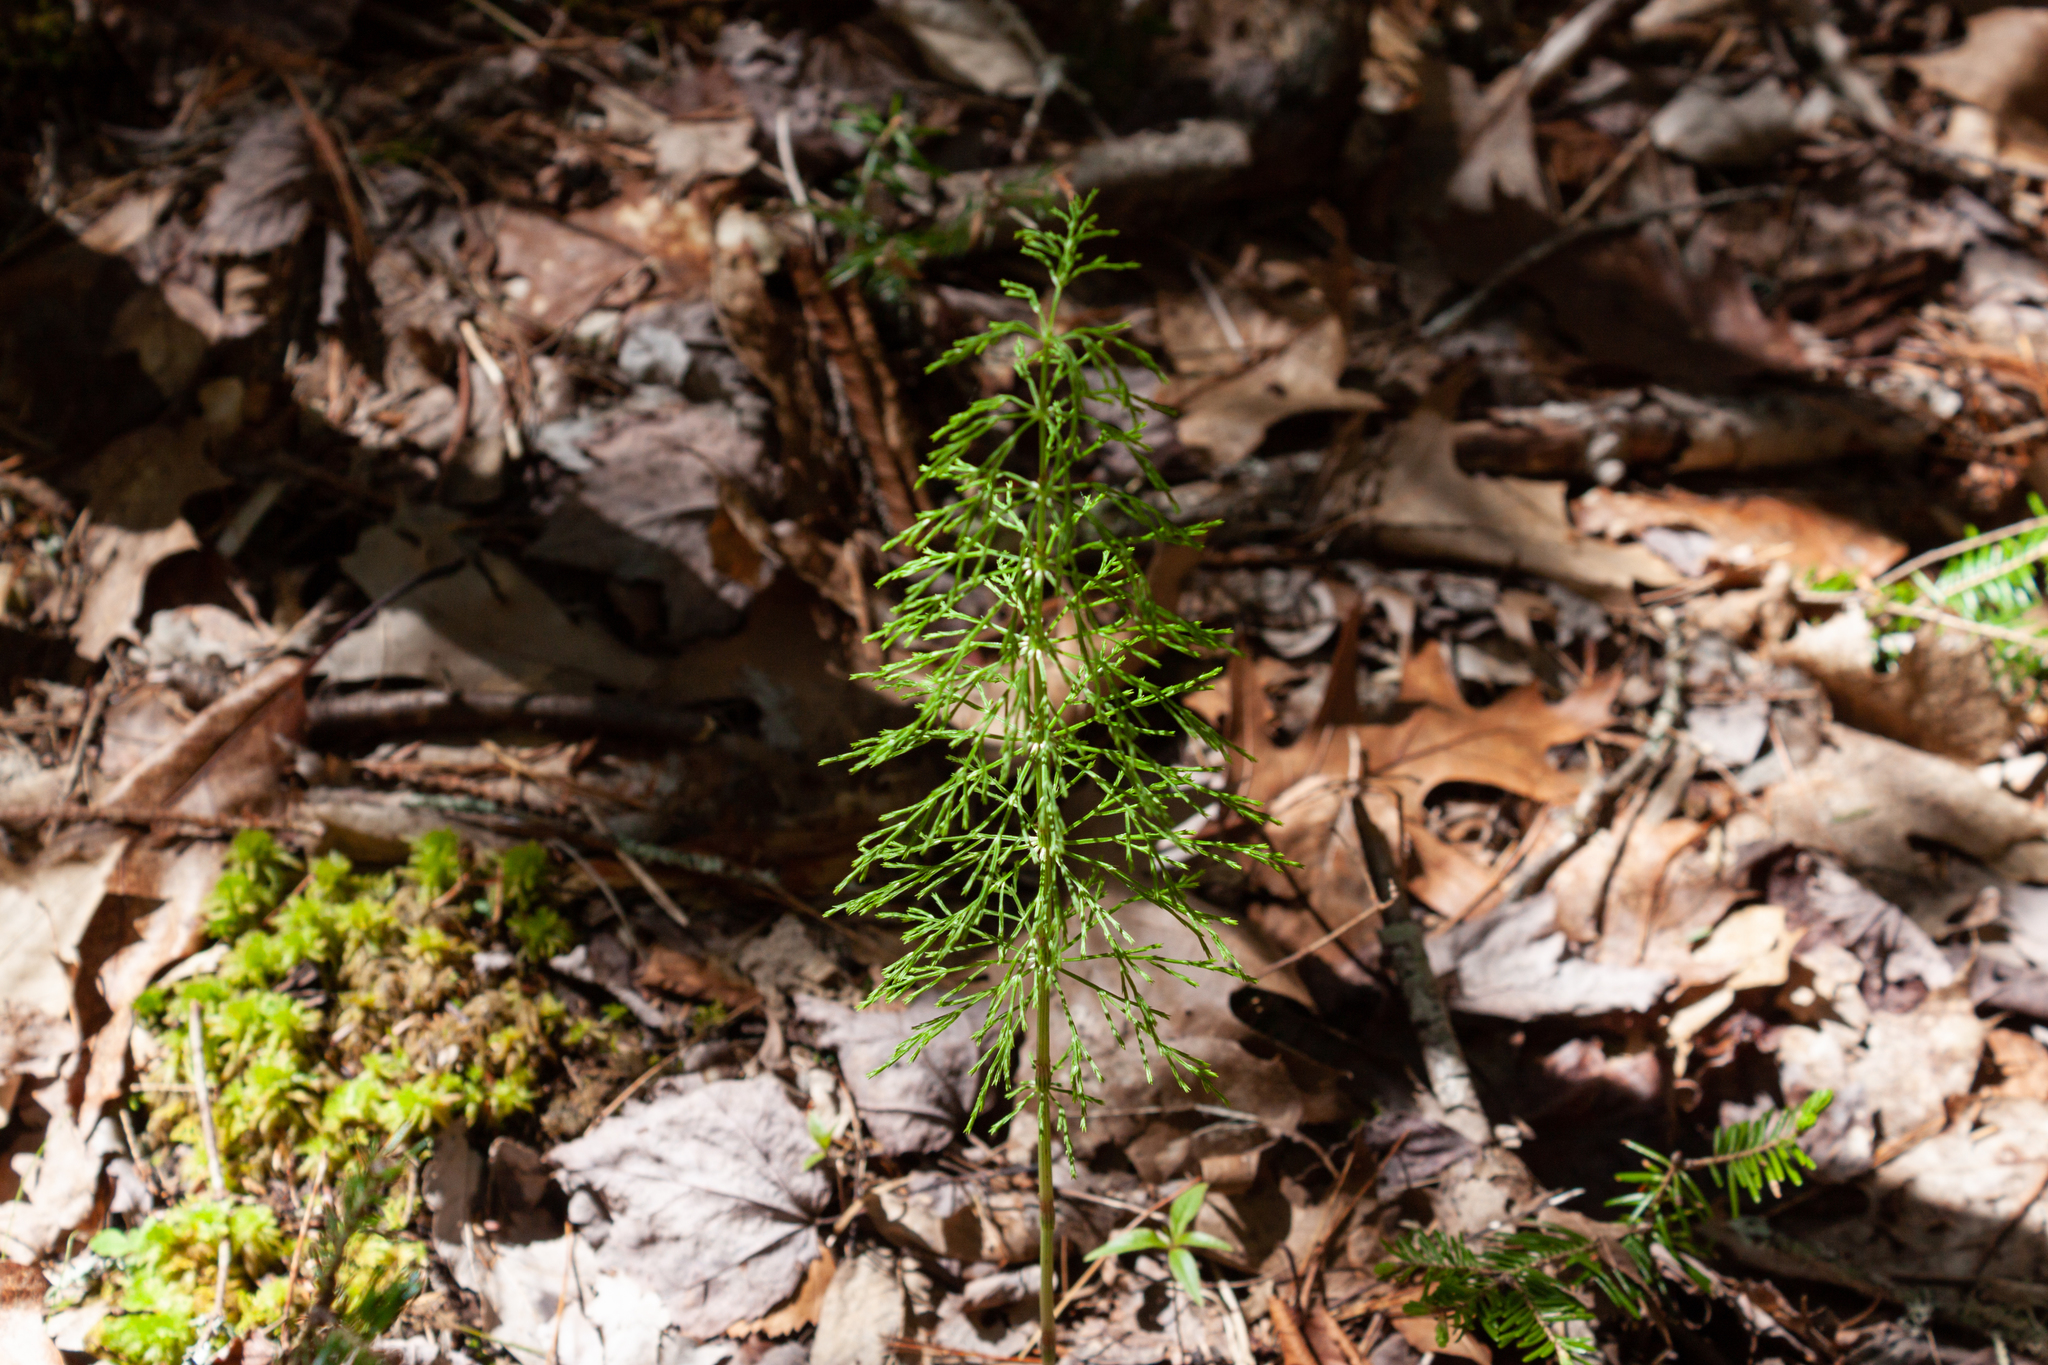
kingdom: Plantae
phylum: Tracheophyta
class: Polypodiopsida
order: Equisetales
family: Equisetaceae
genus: Equisetum
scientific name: Equisetum sylvaticum
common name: Wood horsetail
